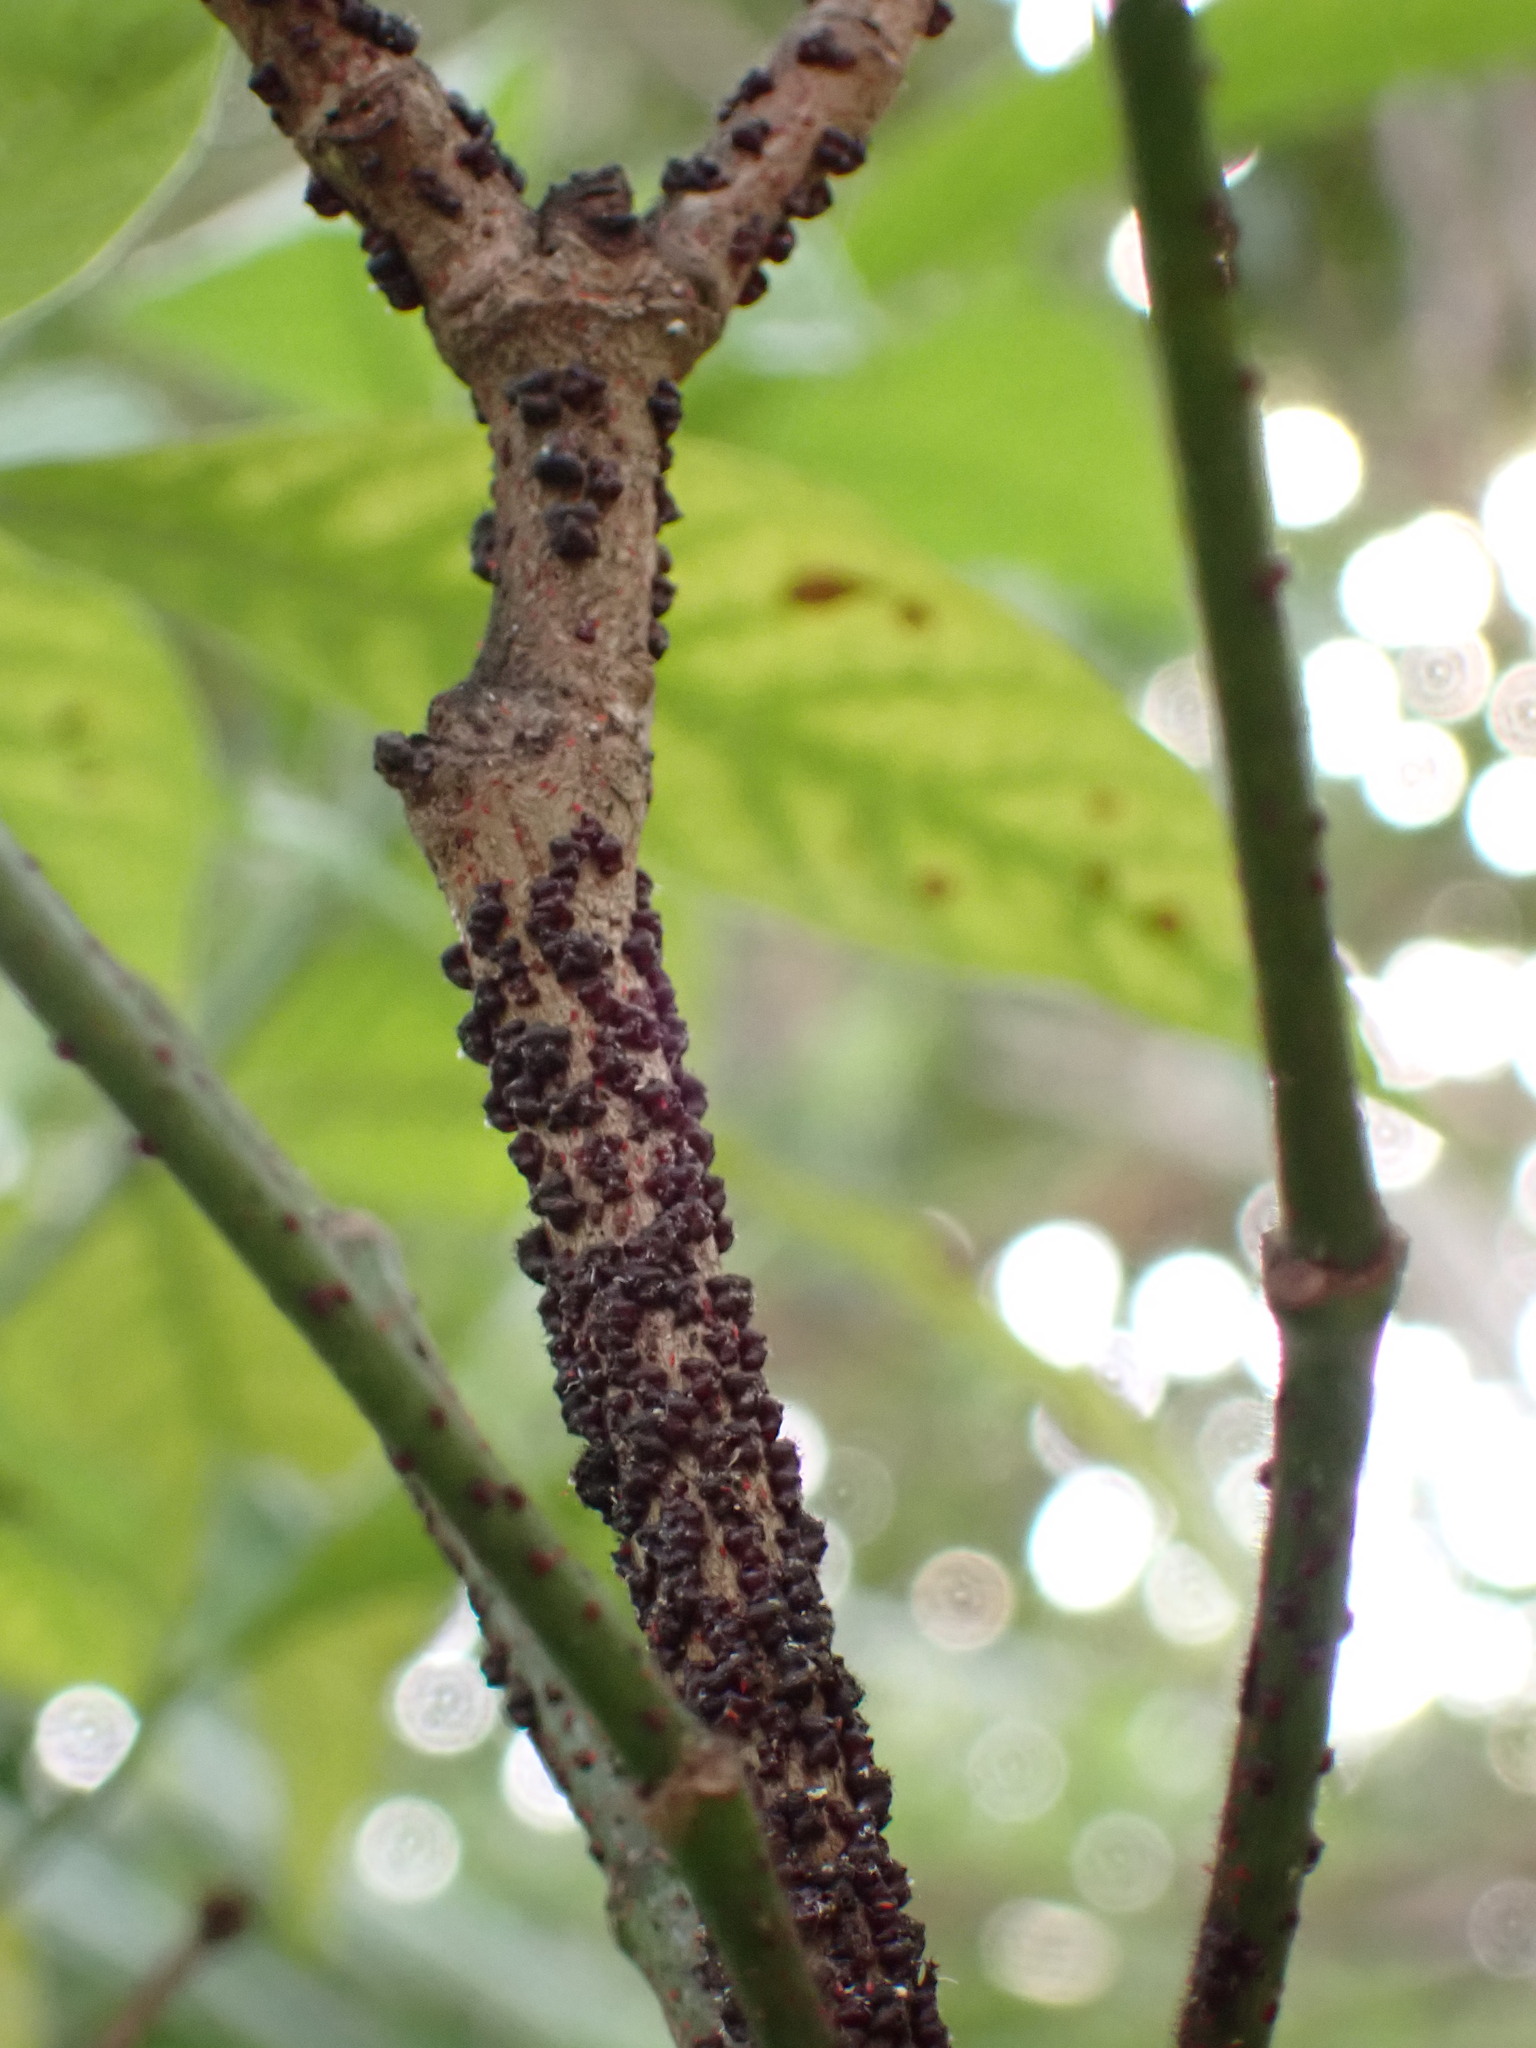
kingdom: Animalia
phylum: Arthropoda
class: Insecta
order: Hemiptera
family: Kerriidae
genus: Paratachardina
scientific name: Paratachardina pseudolobata
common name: Lobate lac scale
